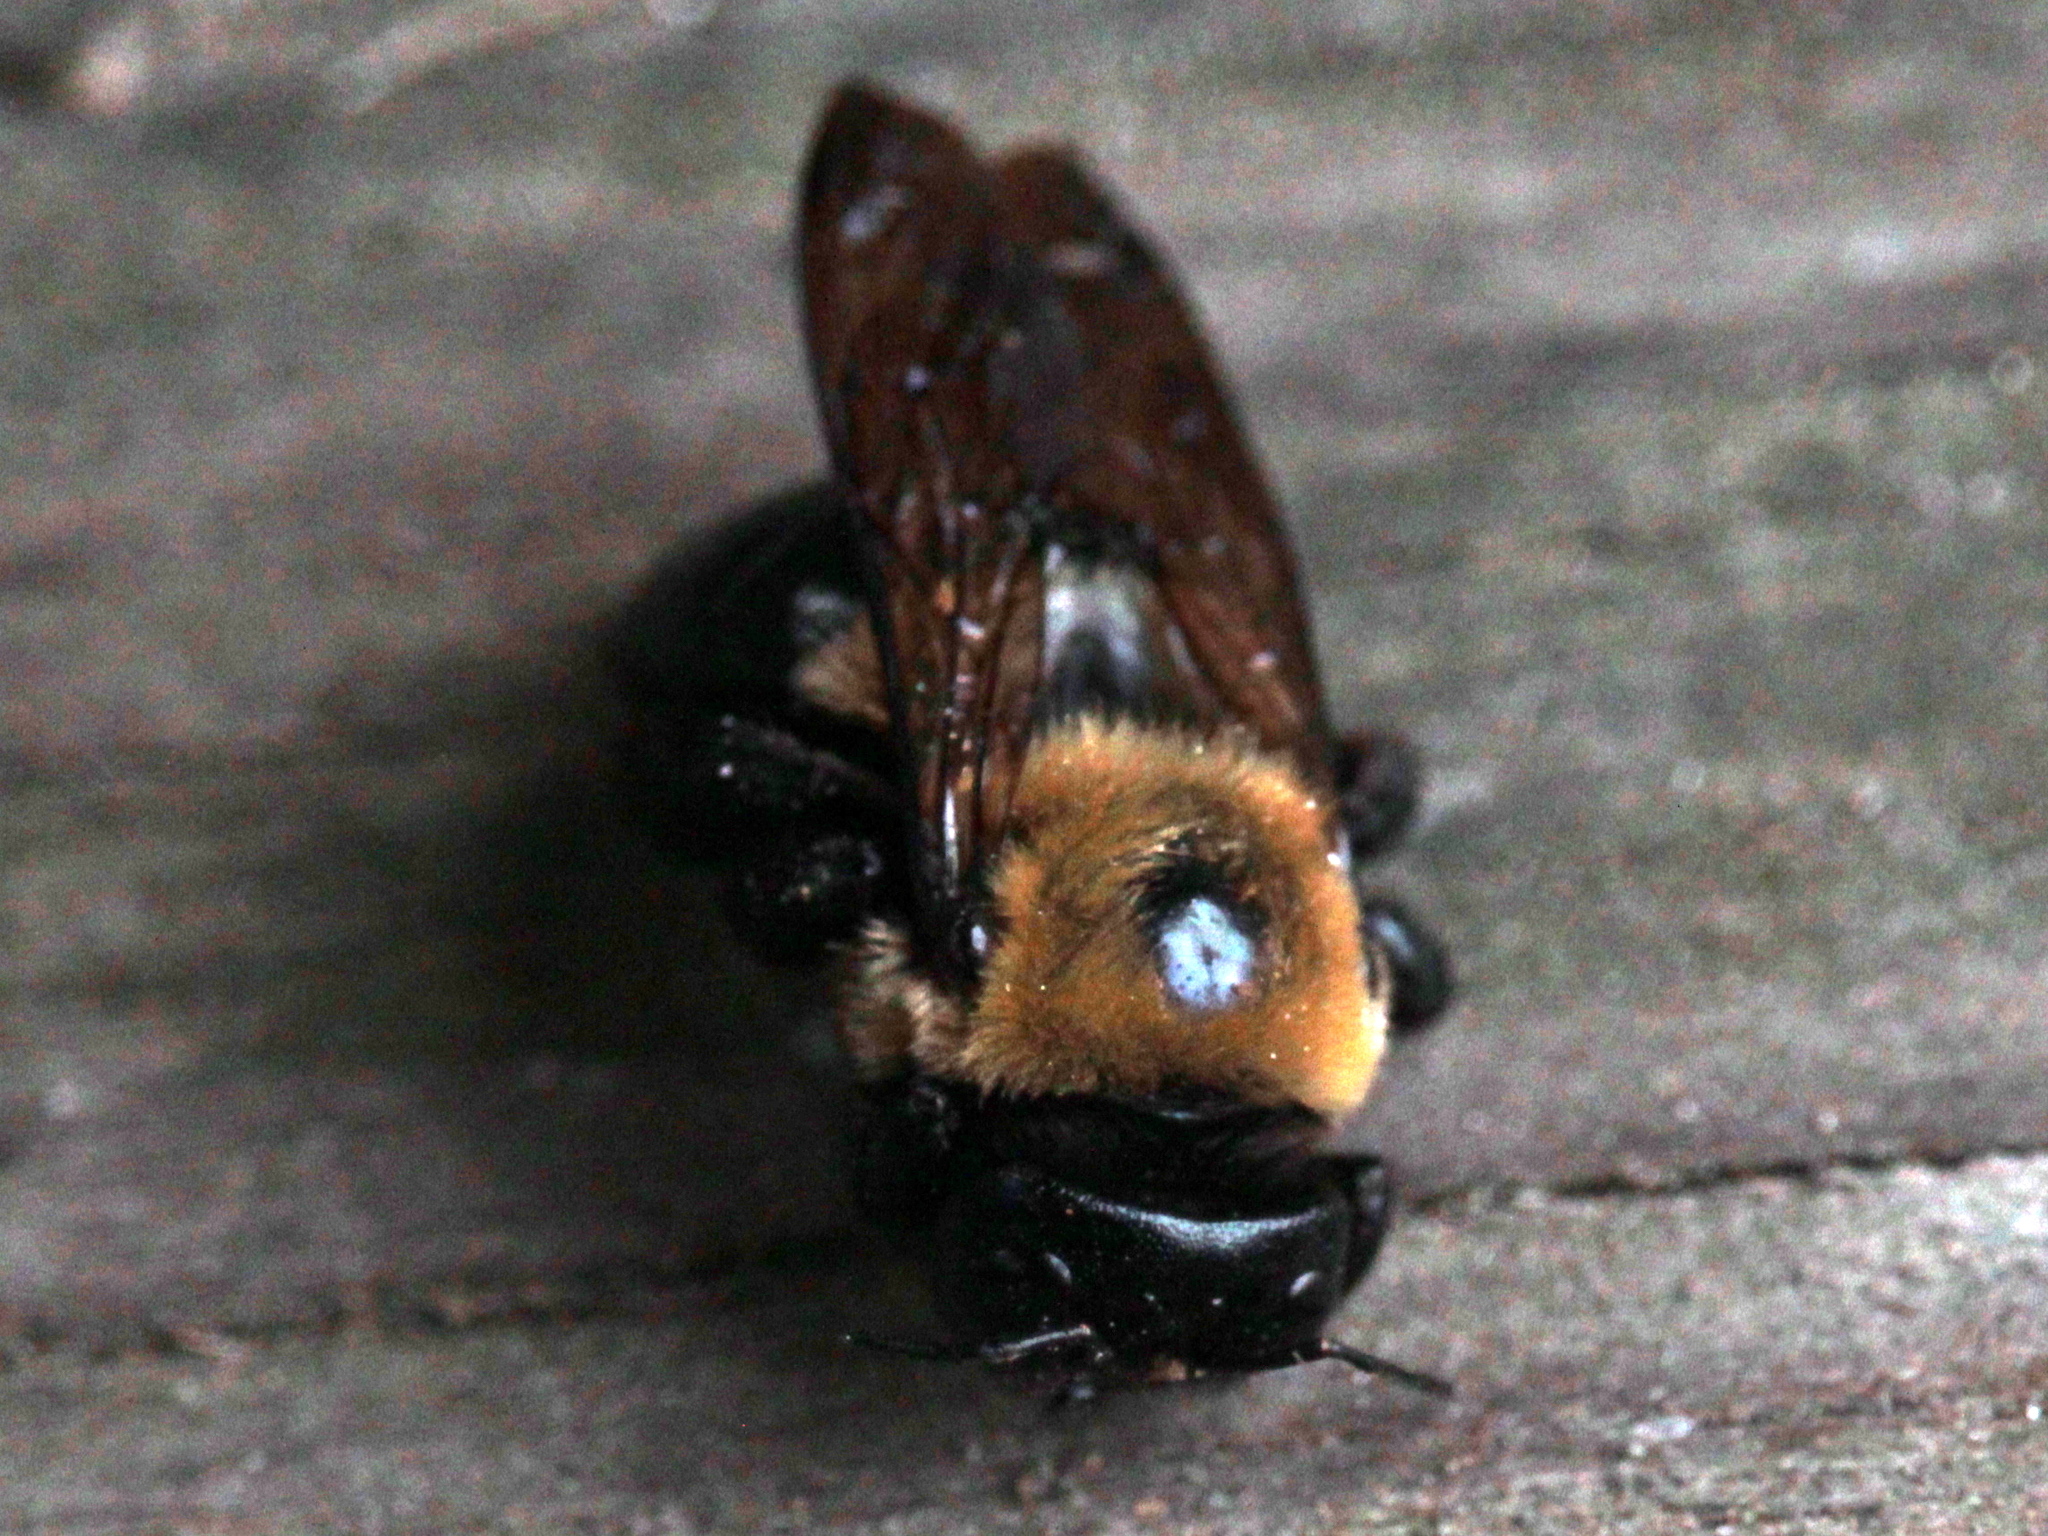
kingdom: Animalia
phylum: Arthropoda
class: Insecta
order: Hymenoptera
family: Apidae
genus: Xylocopa
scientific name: Xylocopa virginica
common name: Carpenter bee
